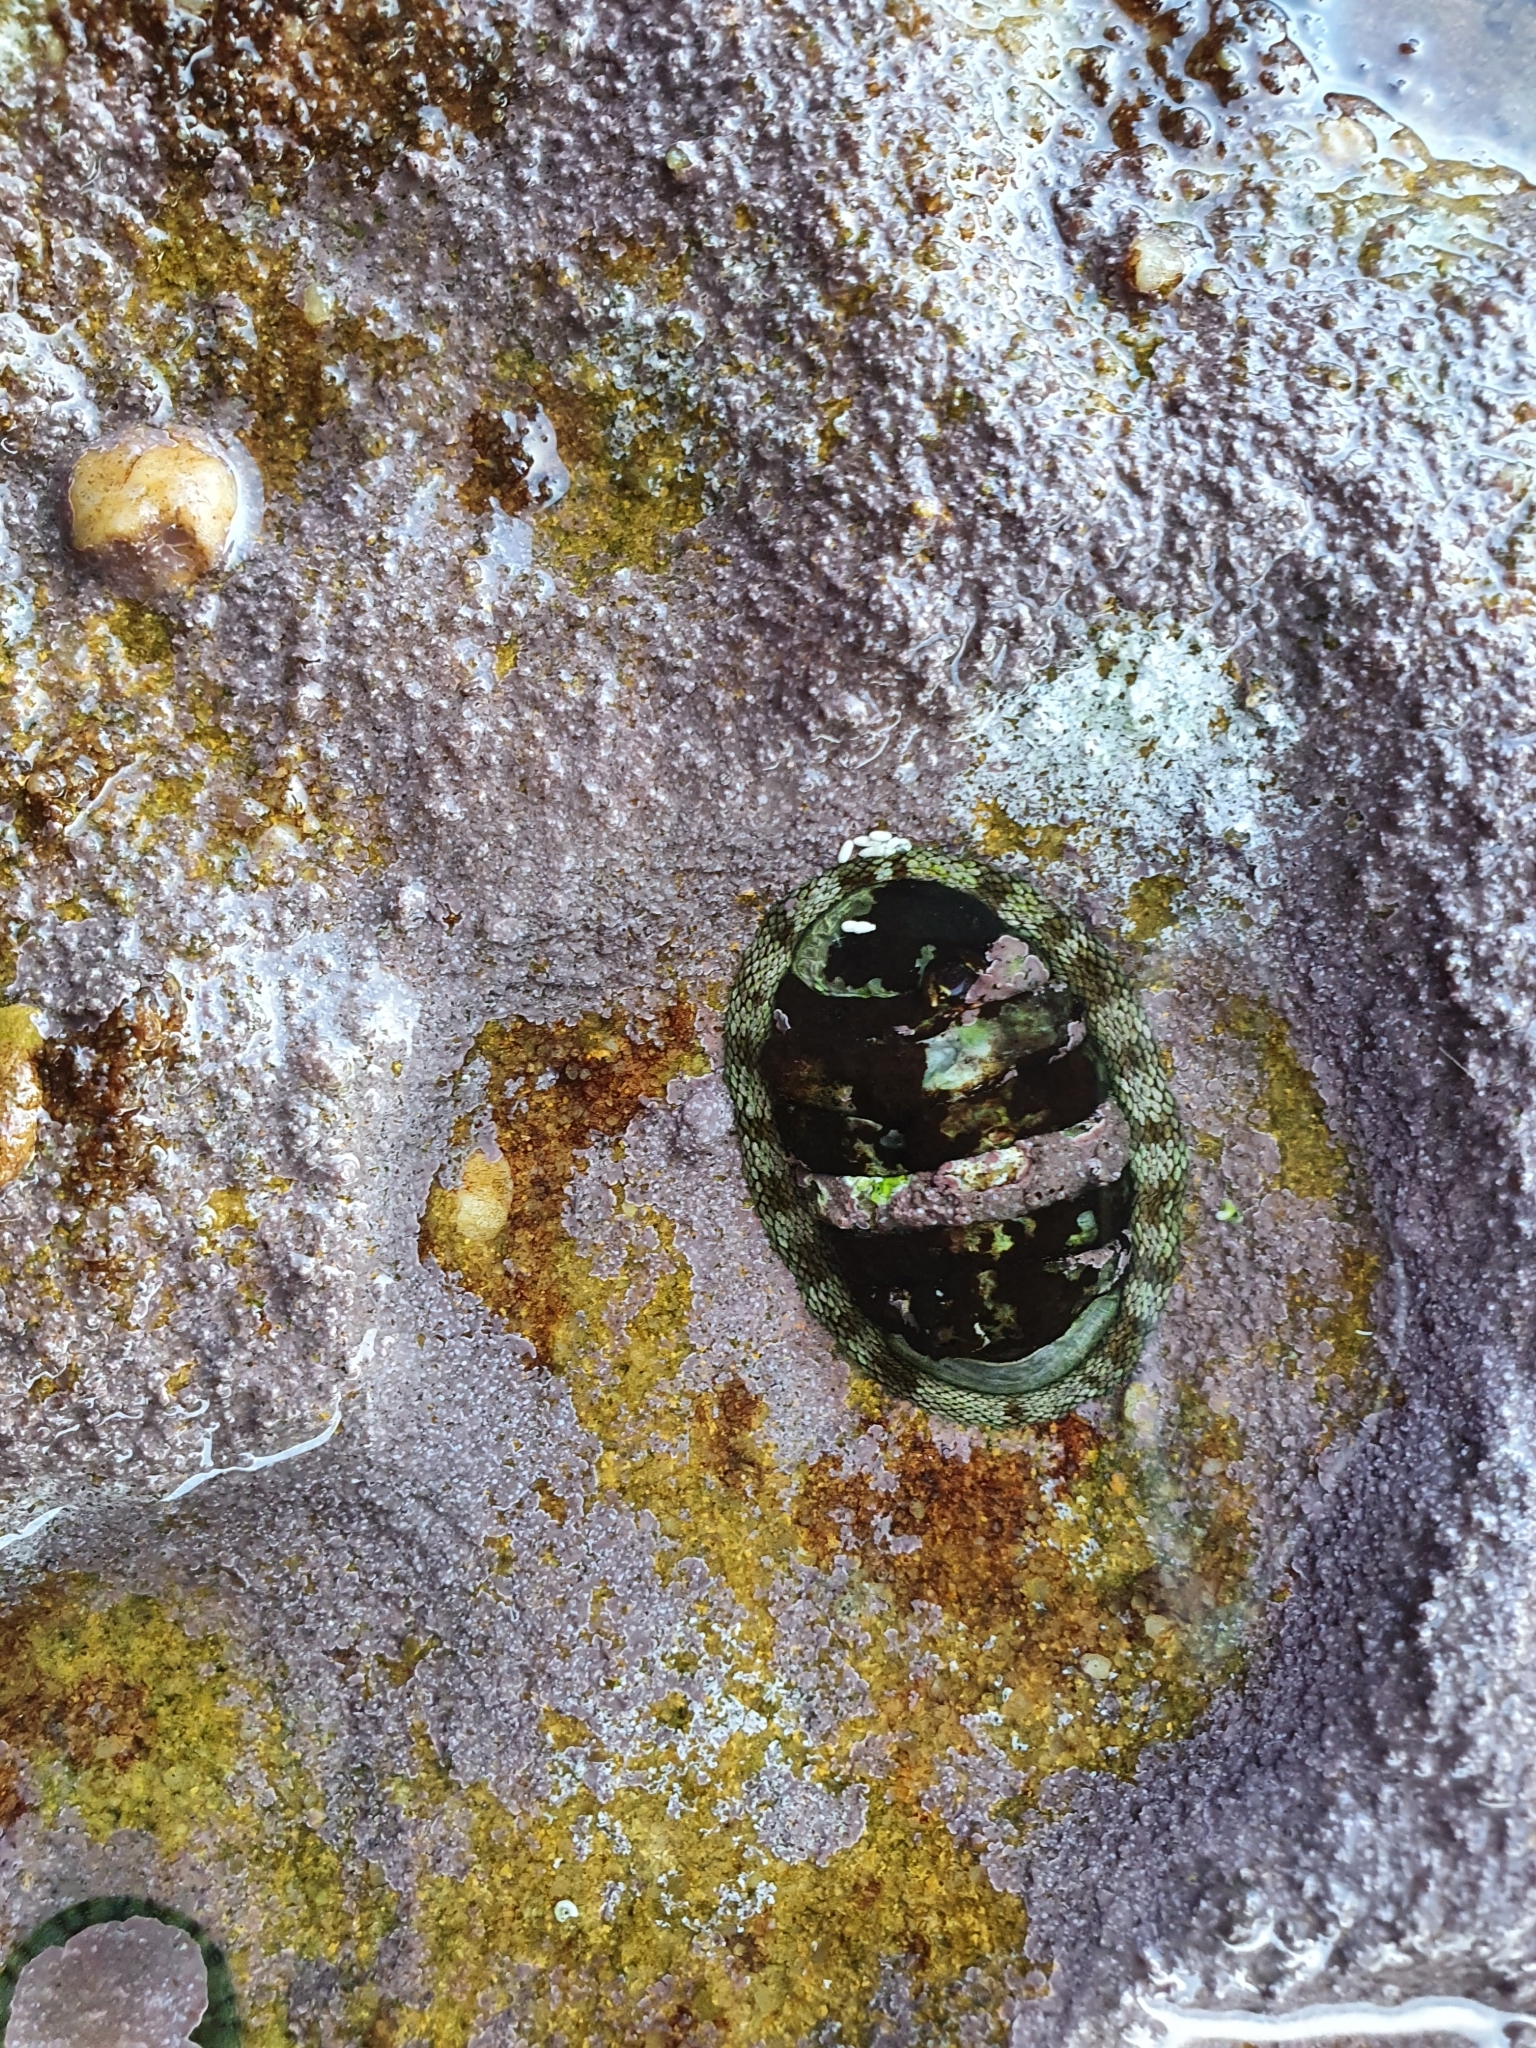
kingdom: Animalia
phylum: Mollusca
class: Polyplacophora
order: Chitonida
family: Chitonidae
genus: Sypharochiton
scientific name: Sypharochiton pelliserpentis
